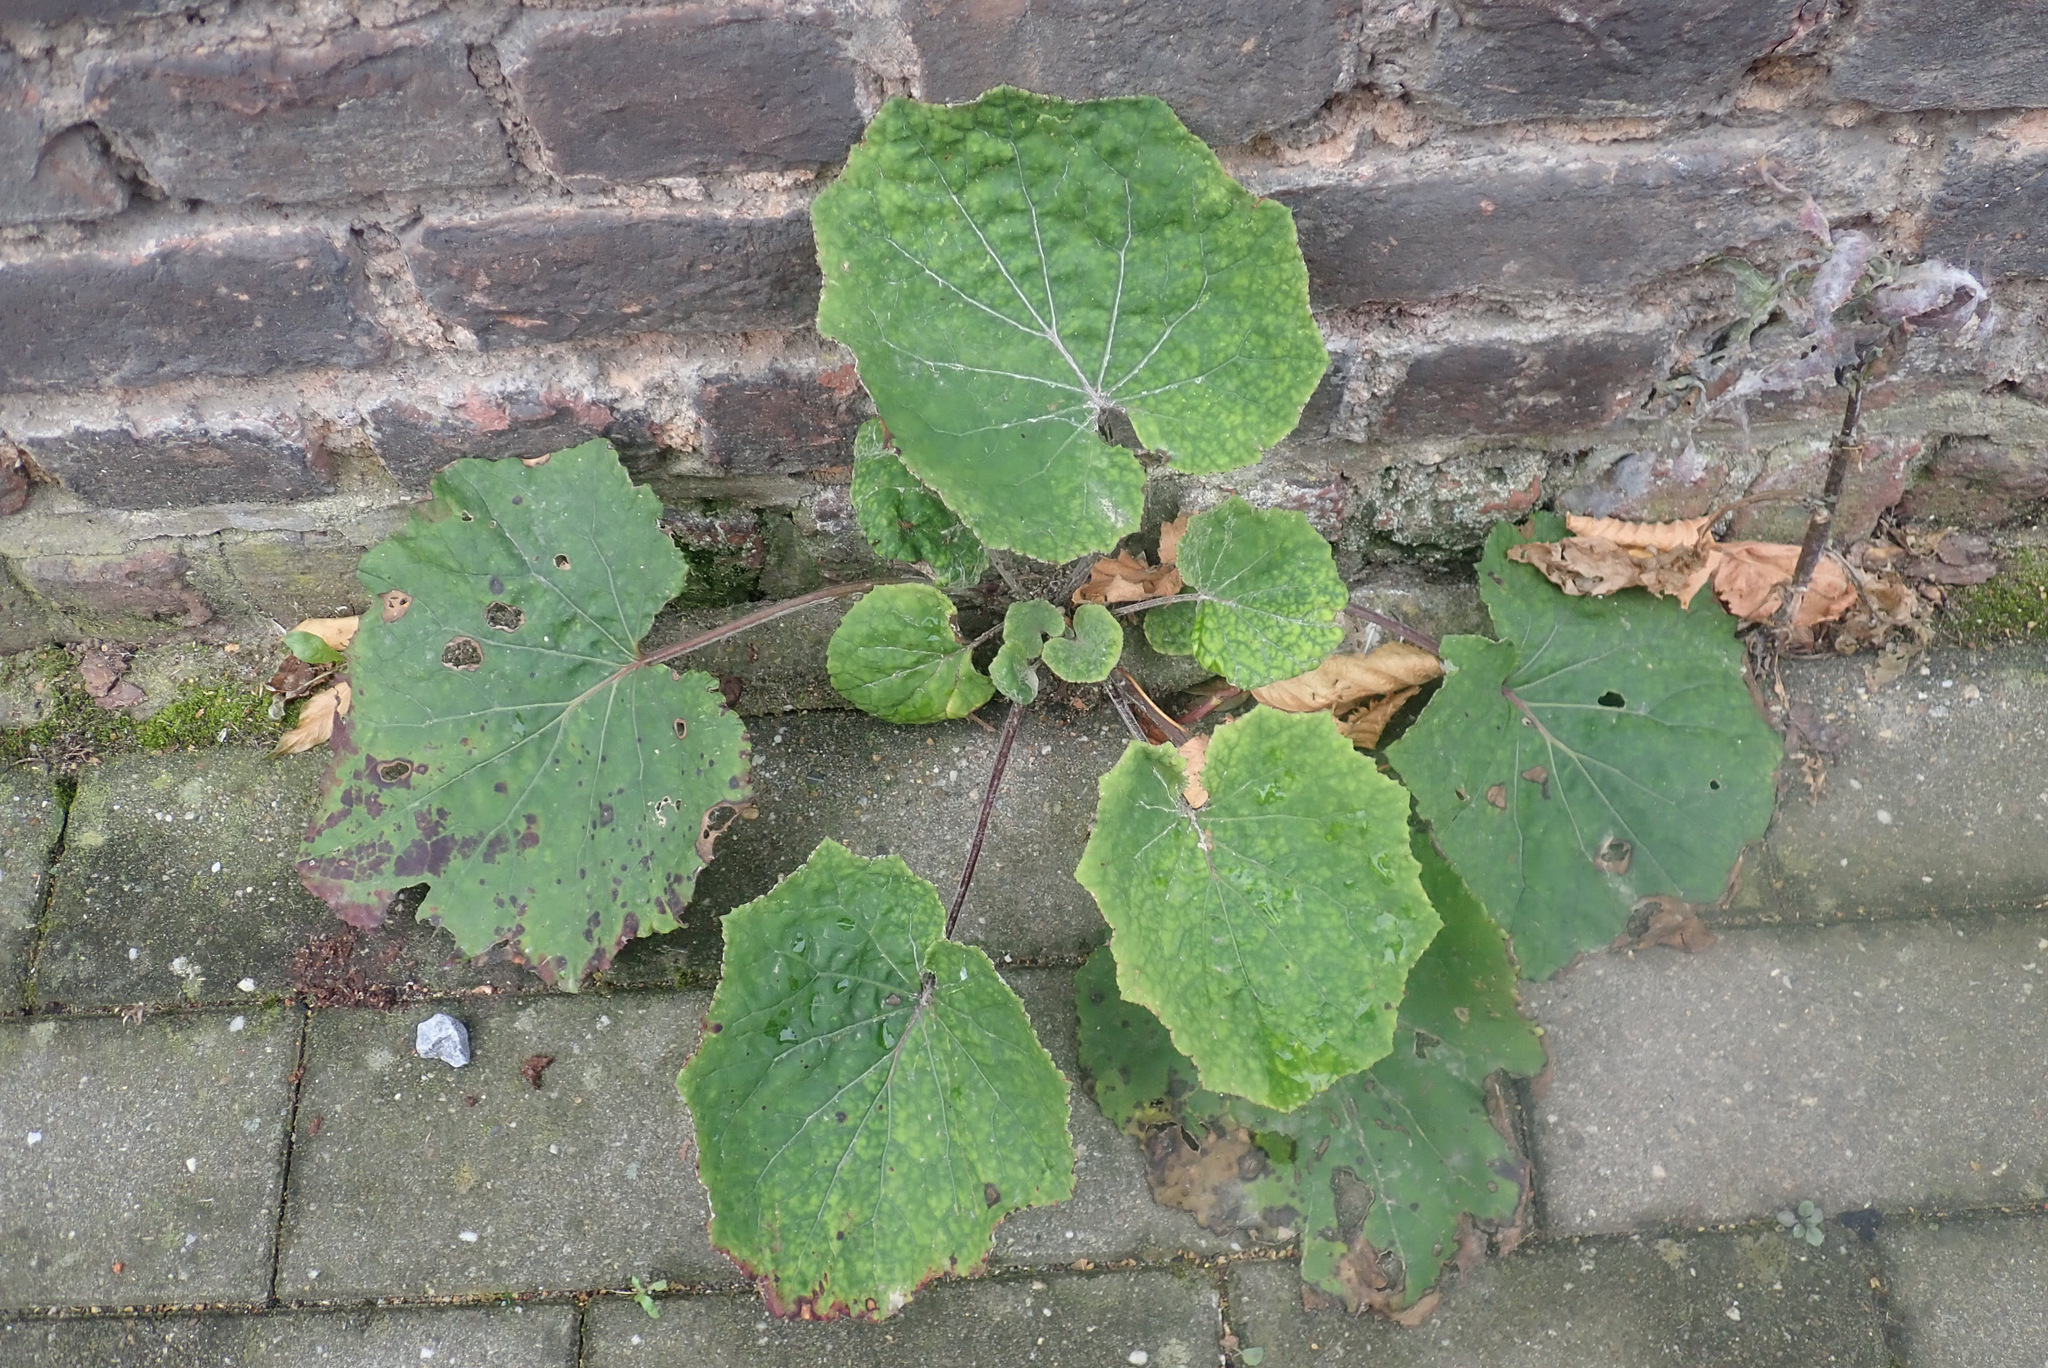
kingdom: Plantae
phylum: Tracheophyta
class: Magnoliopsida
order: Asterales
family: Asteraceae
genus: Tussilago
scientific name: Tussilago farfara
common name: Coltsfoot
